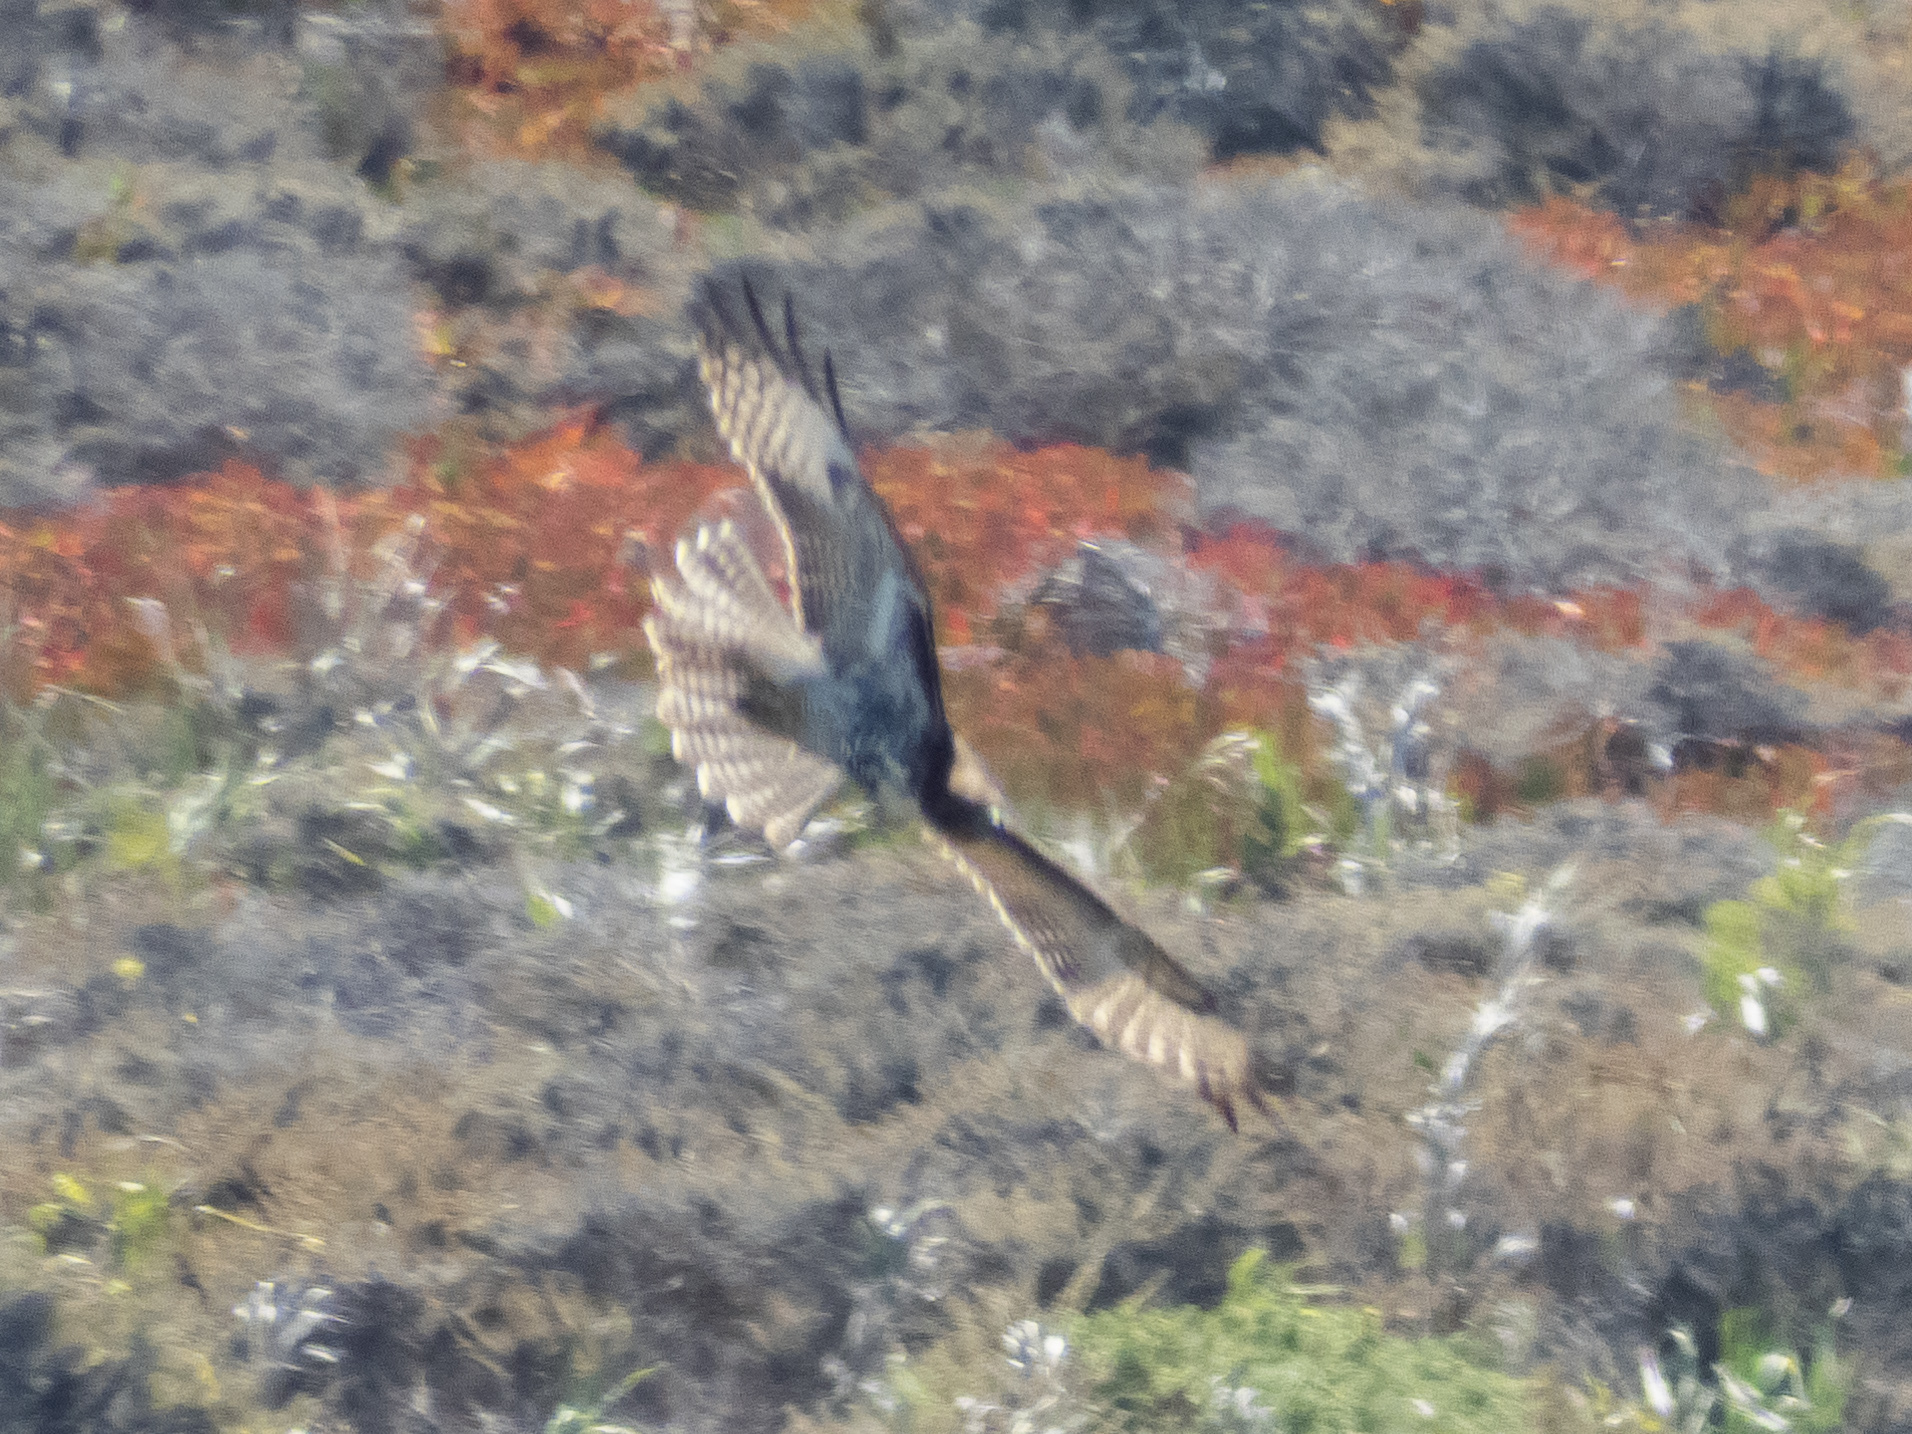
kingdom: Animalia
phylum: Chordata
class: Aves
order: Accipitriformes
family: Accipitridae
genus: Buteo
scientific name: Buteo jamaicensis
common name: Red-tailed hawk
